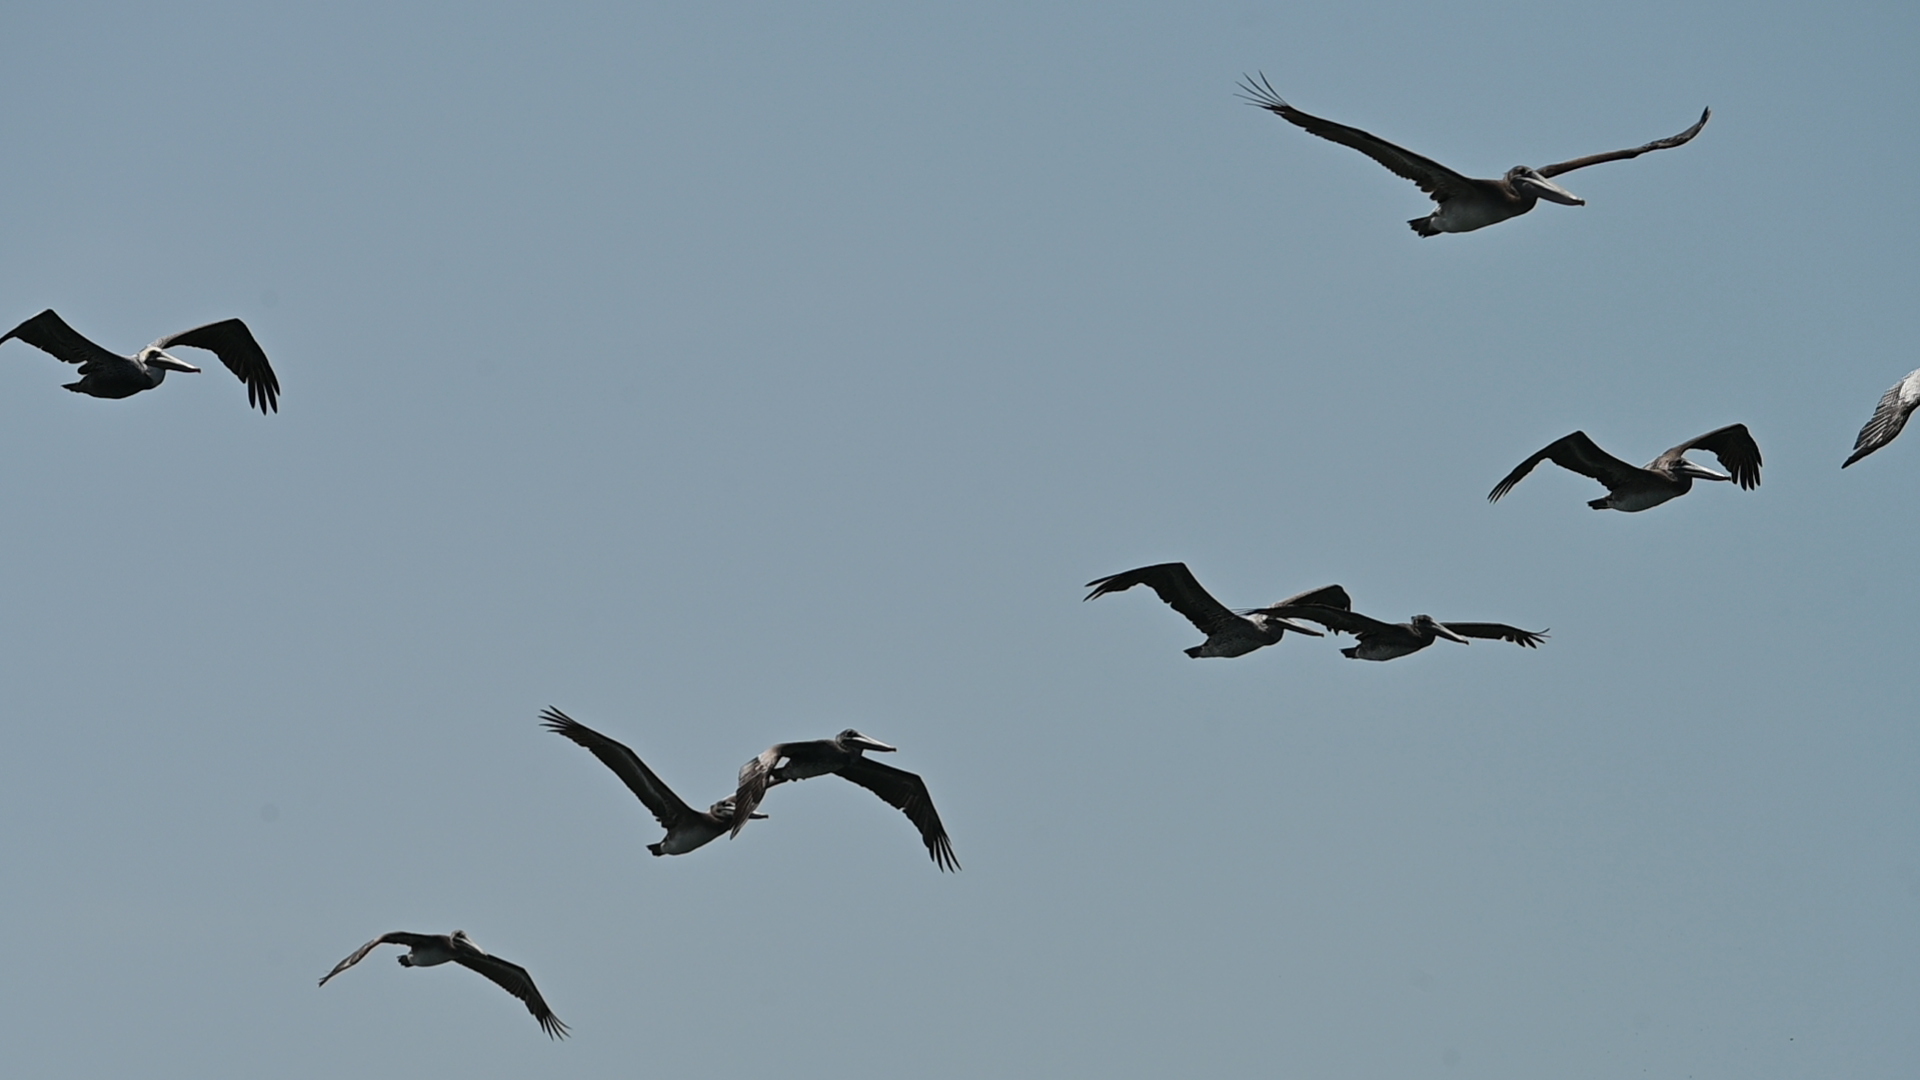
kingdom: Animalia
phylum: Chordata
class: Aves
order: Pelecaniformes
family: Pelecanidae
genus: Pelecanus
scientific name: Pelecanus occidentalis
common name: Brown pelican
